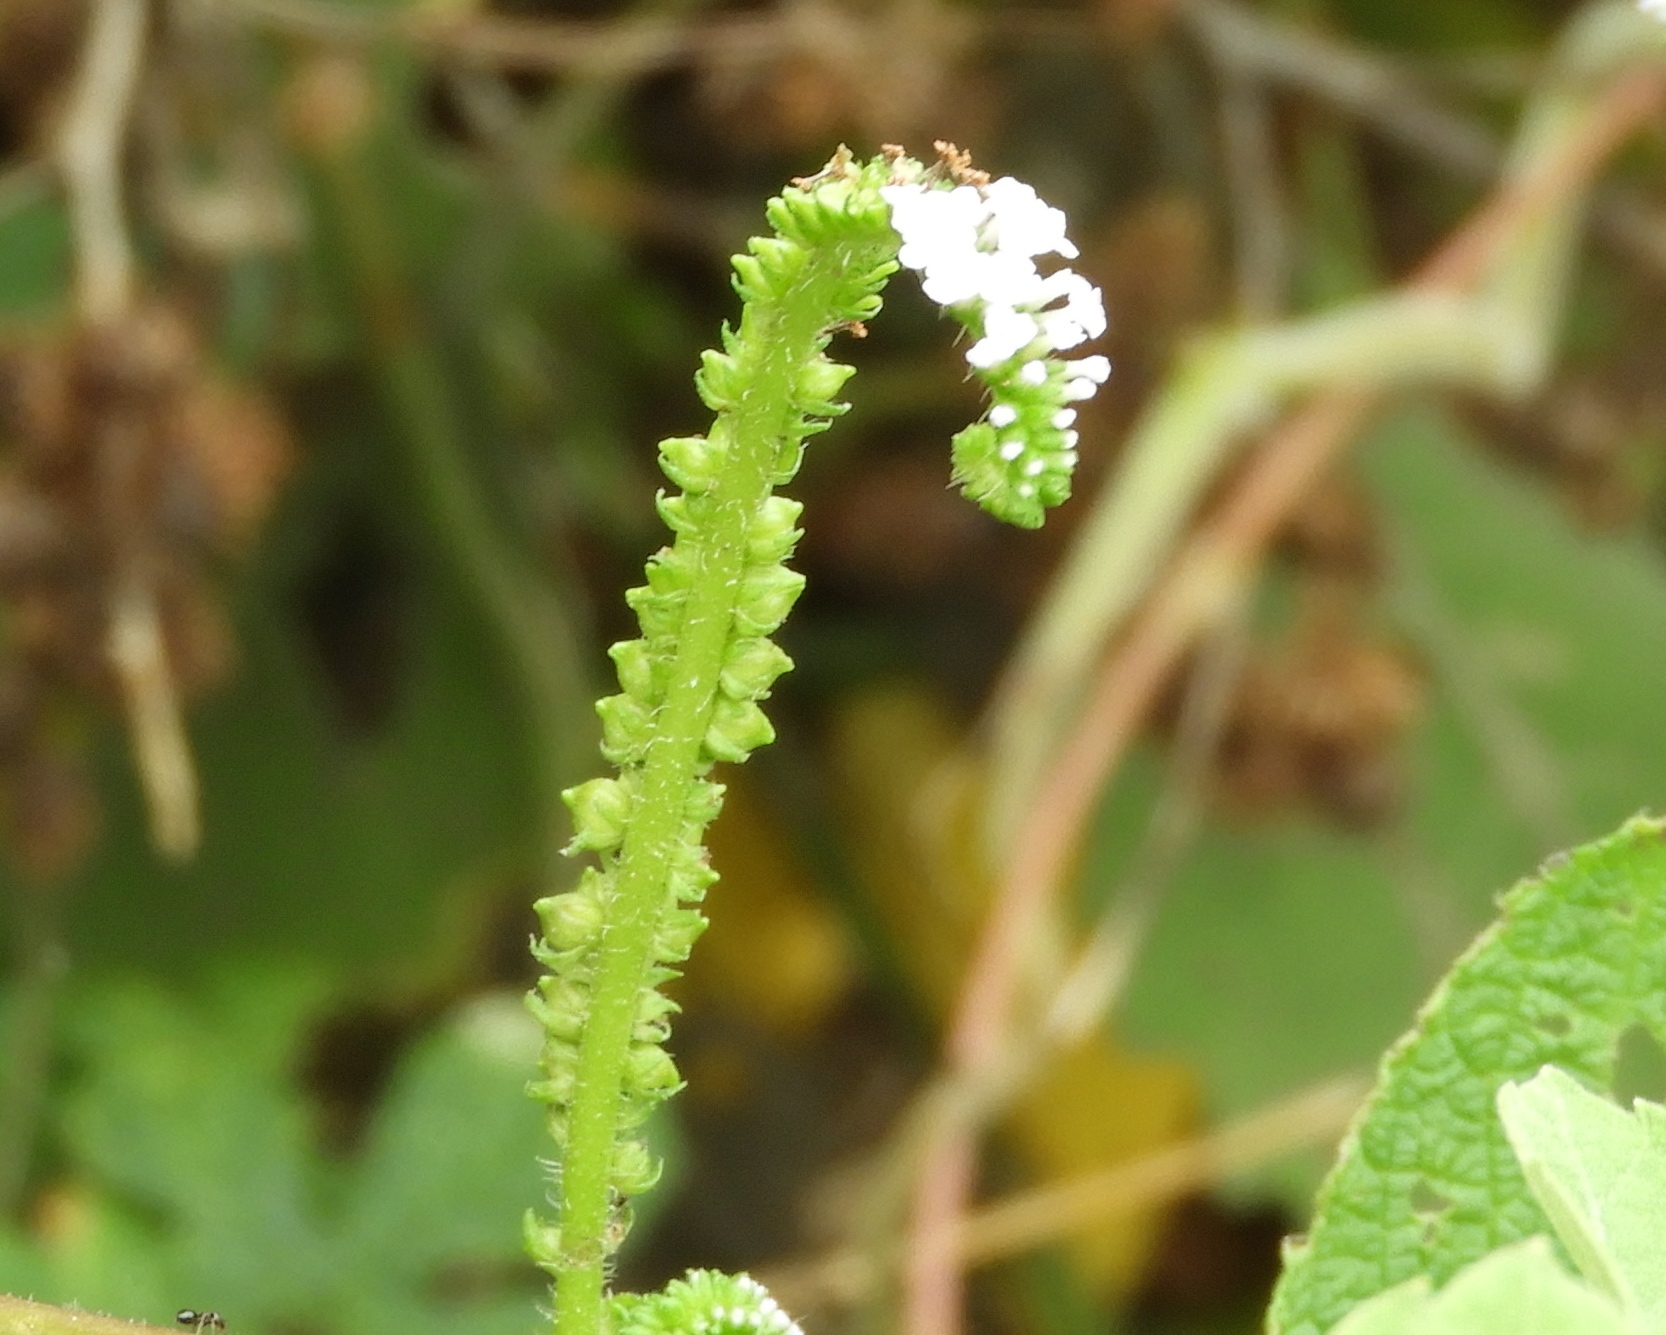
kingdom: Plantae
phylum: Tracheophyta
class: Magnoliopsida
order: Boraginales
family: Heliotropiaceae
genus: Heliotropium
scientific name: Heliotropium indicum
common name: Indian heliotrope
